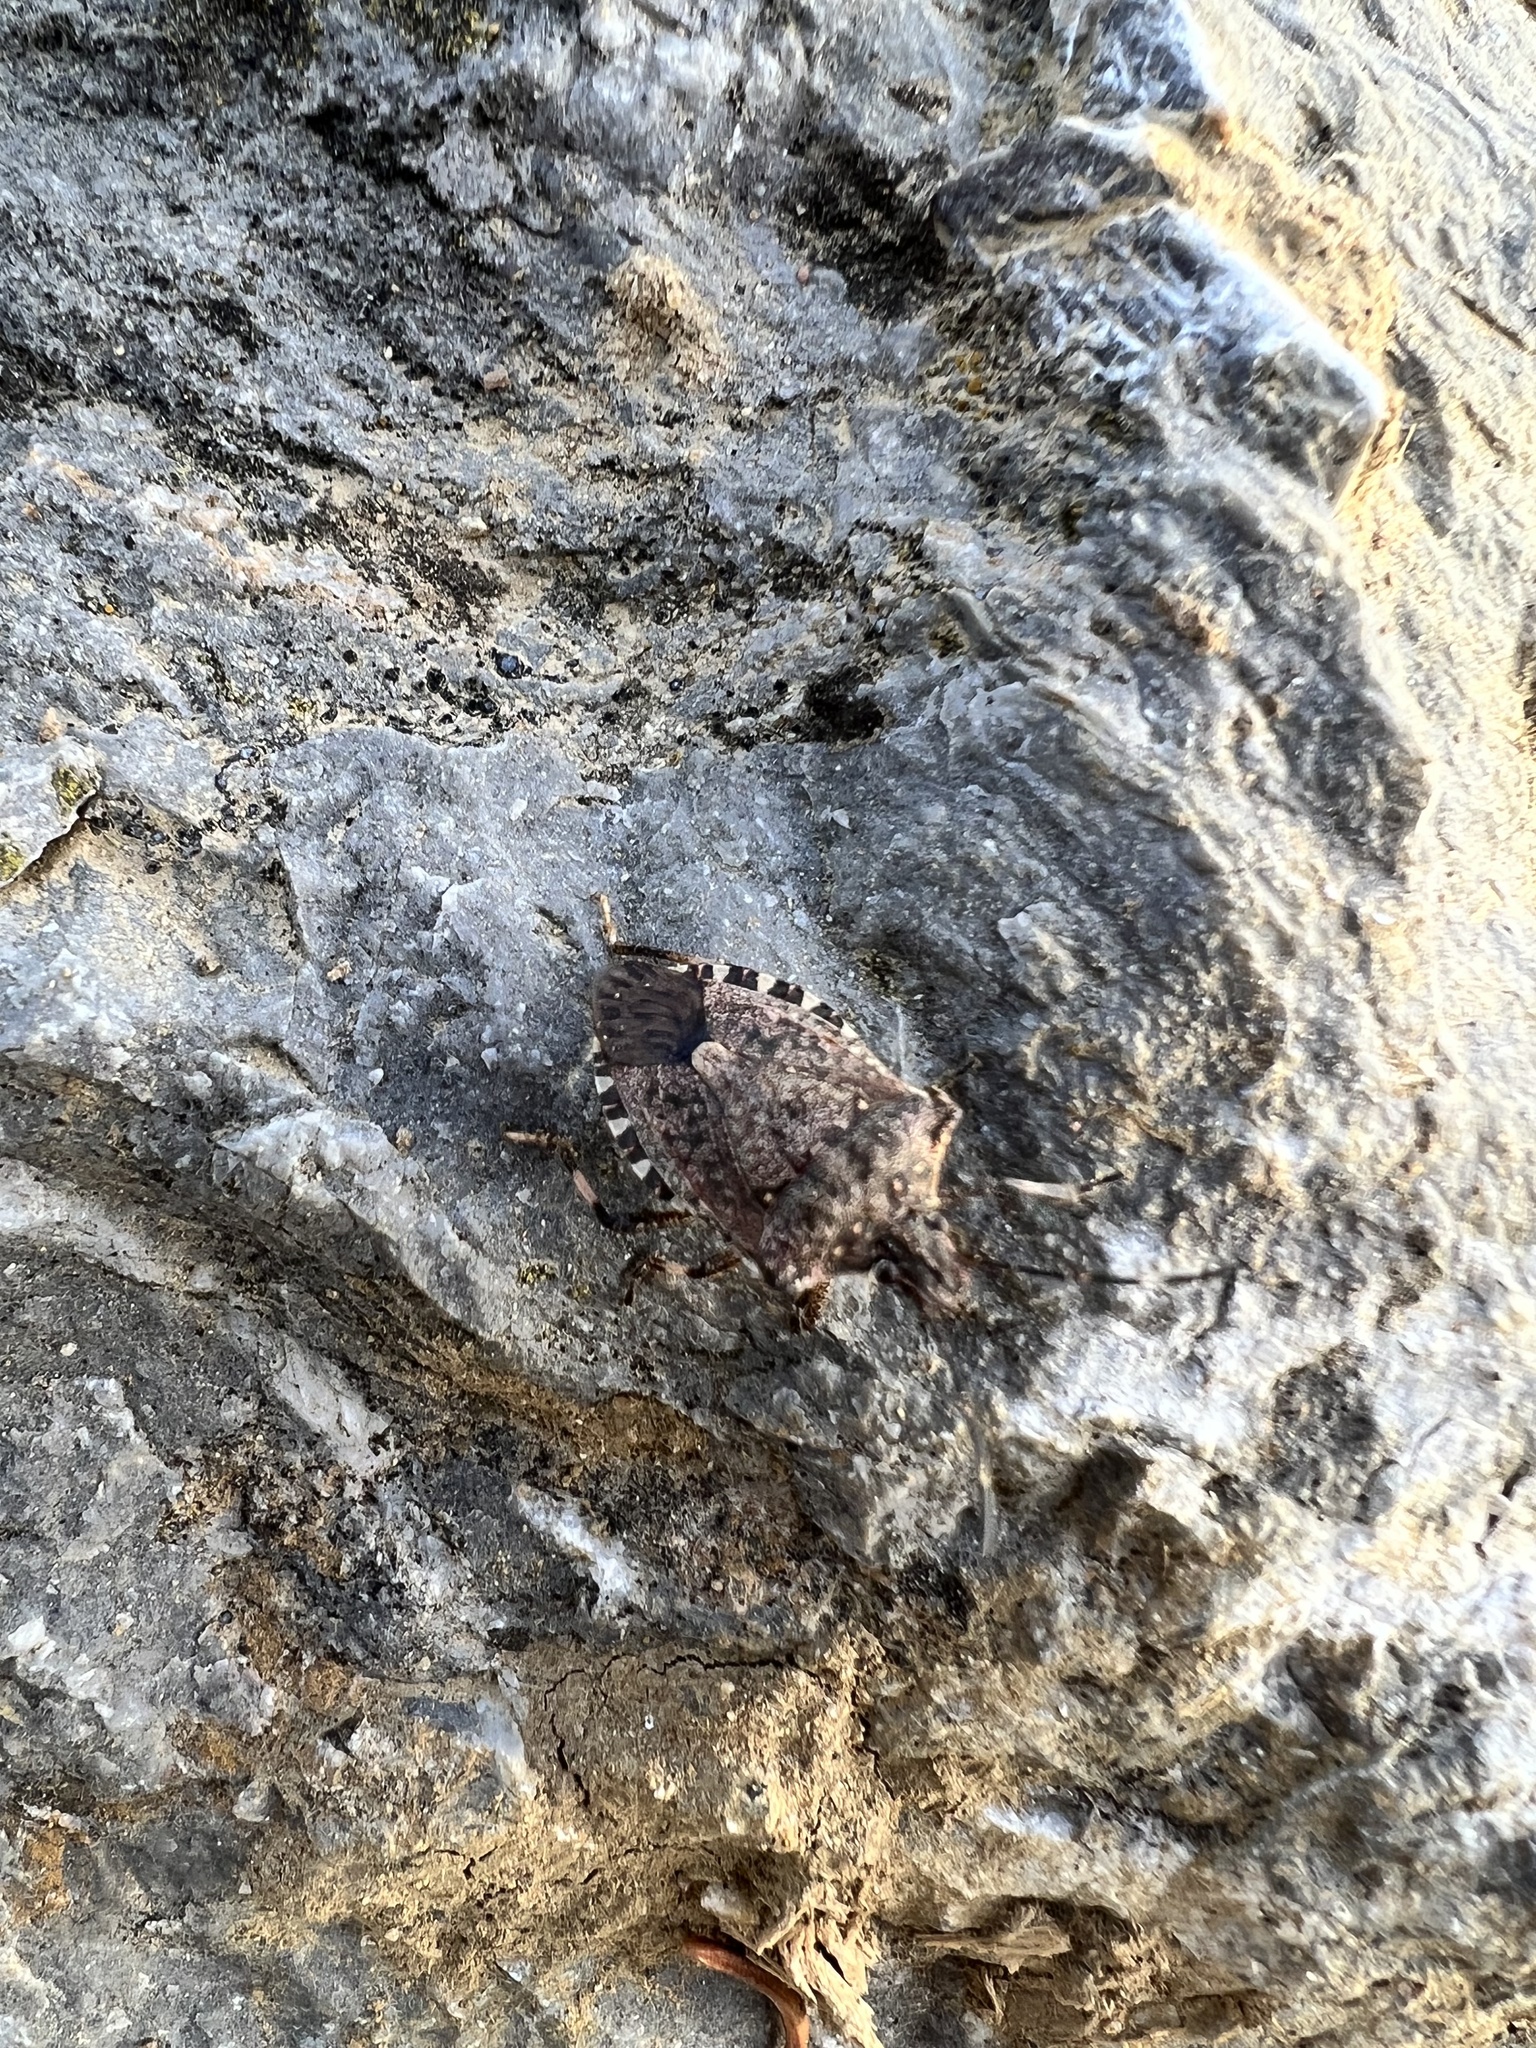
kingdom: Animalia
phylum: Arthropoda
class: Insecta
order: Hemiptera
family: Pentatomidae
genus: Halyomorpha
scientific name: Halyomorpha halys
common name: Brown marmorated stink bug
